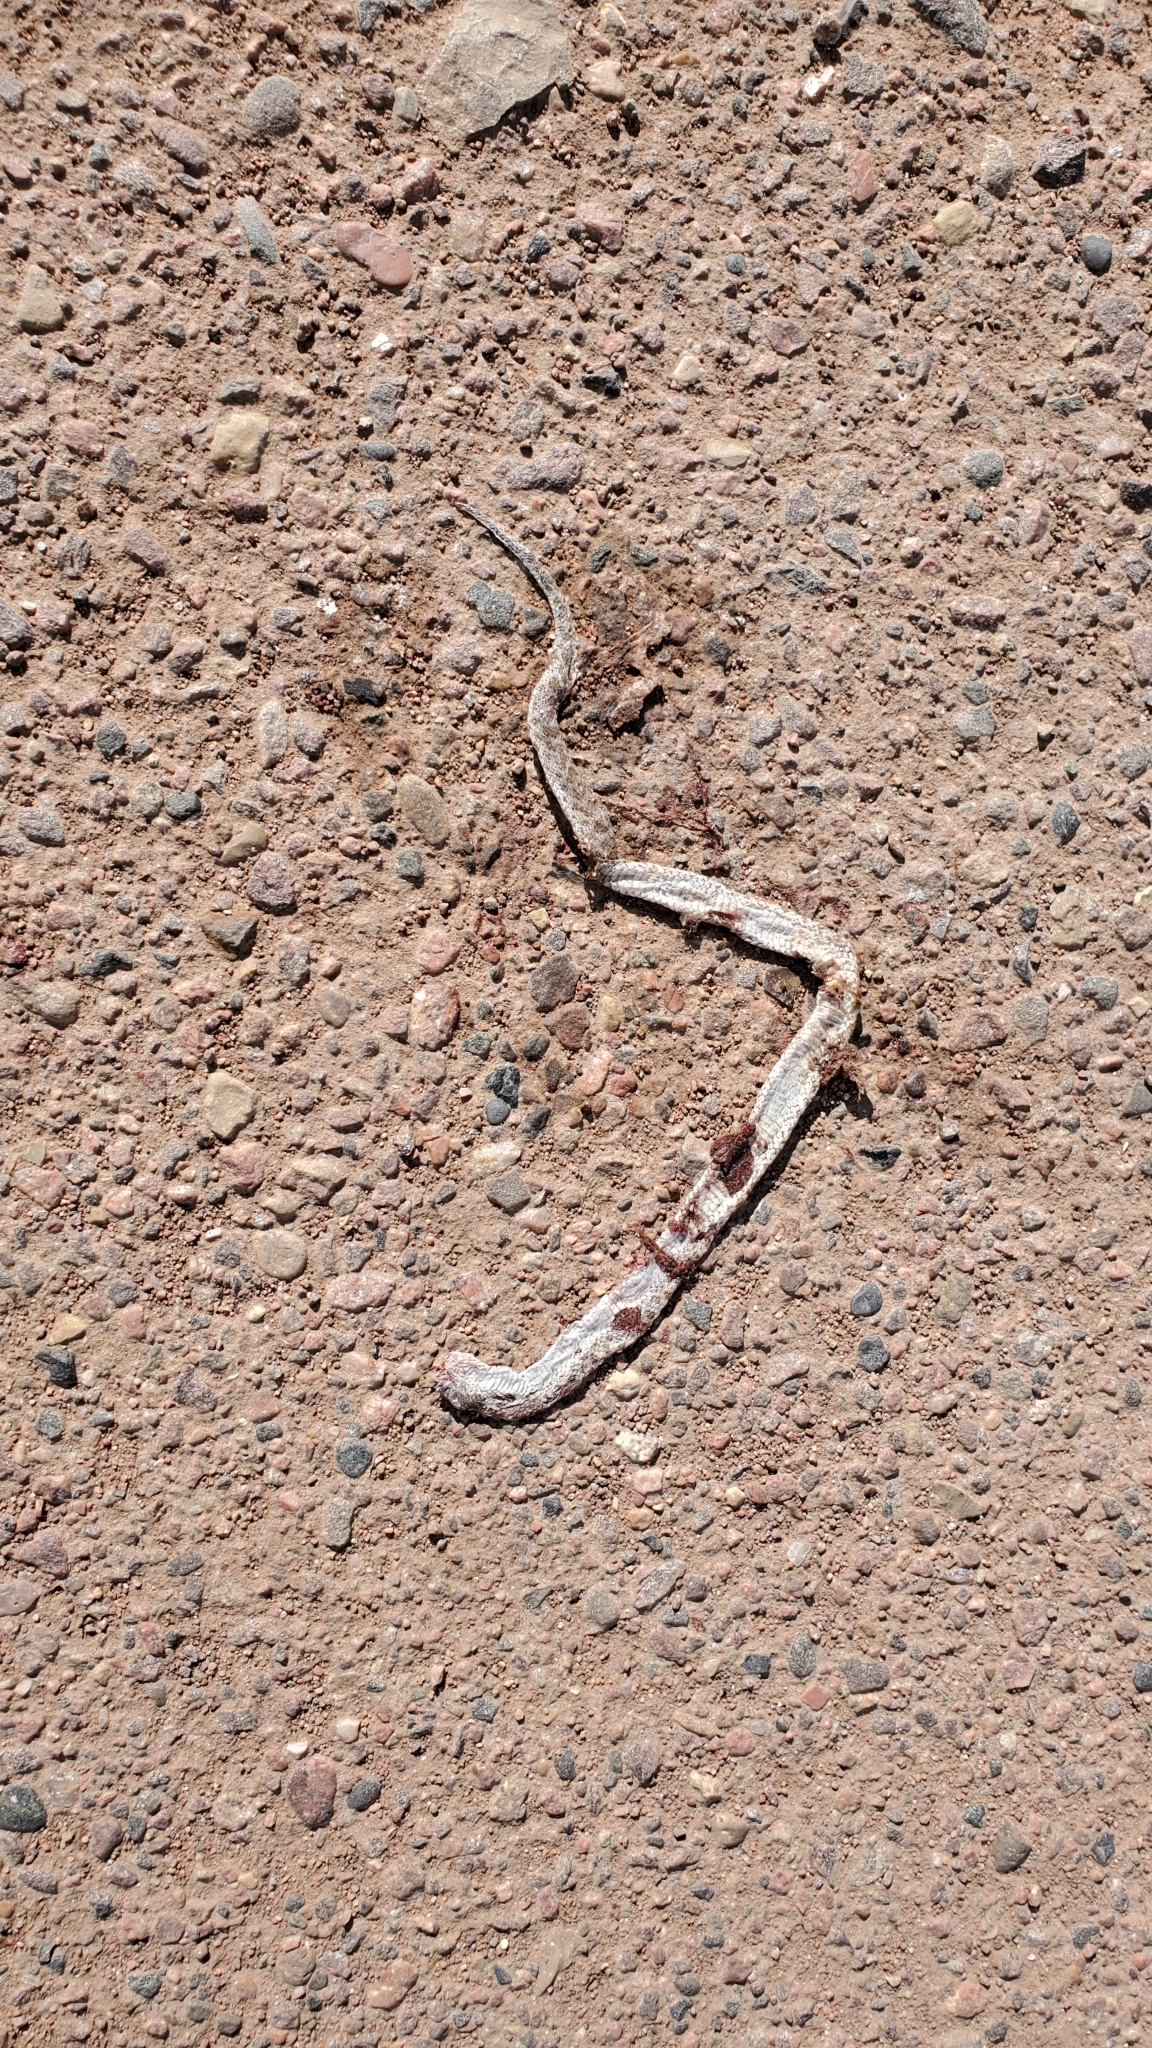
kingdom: Animalia
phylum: Chordata
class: Squamata
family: Colubridae
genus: Hypsiglena
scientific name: Hypsiglena jani
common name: Chihuahuan nightsnake
